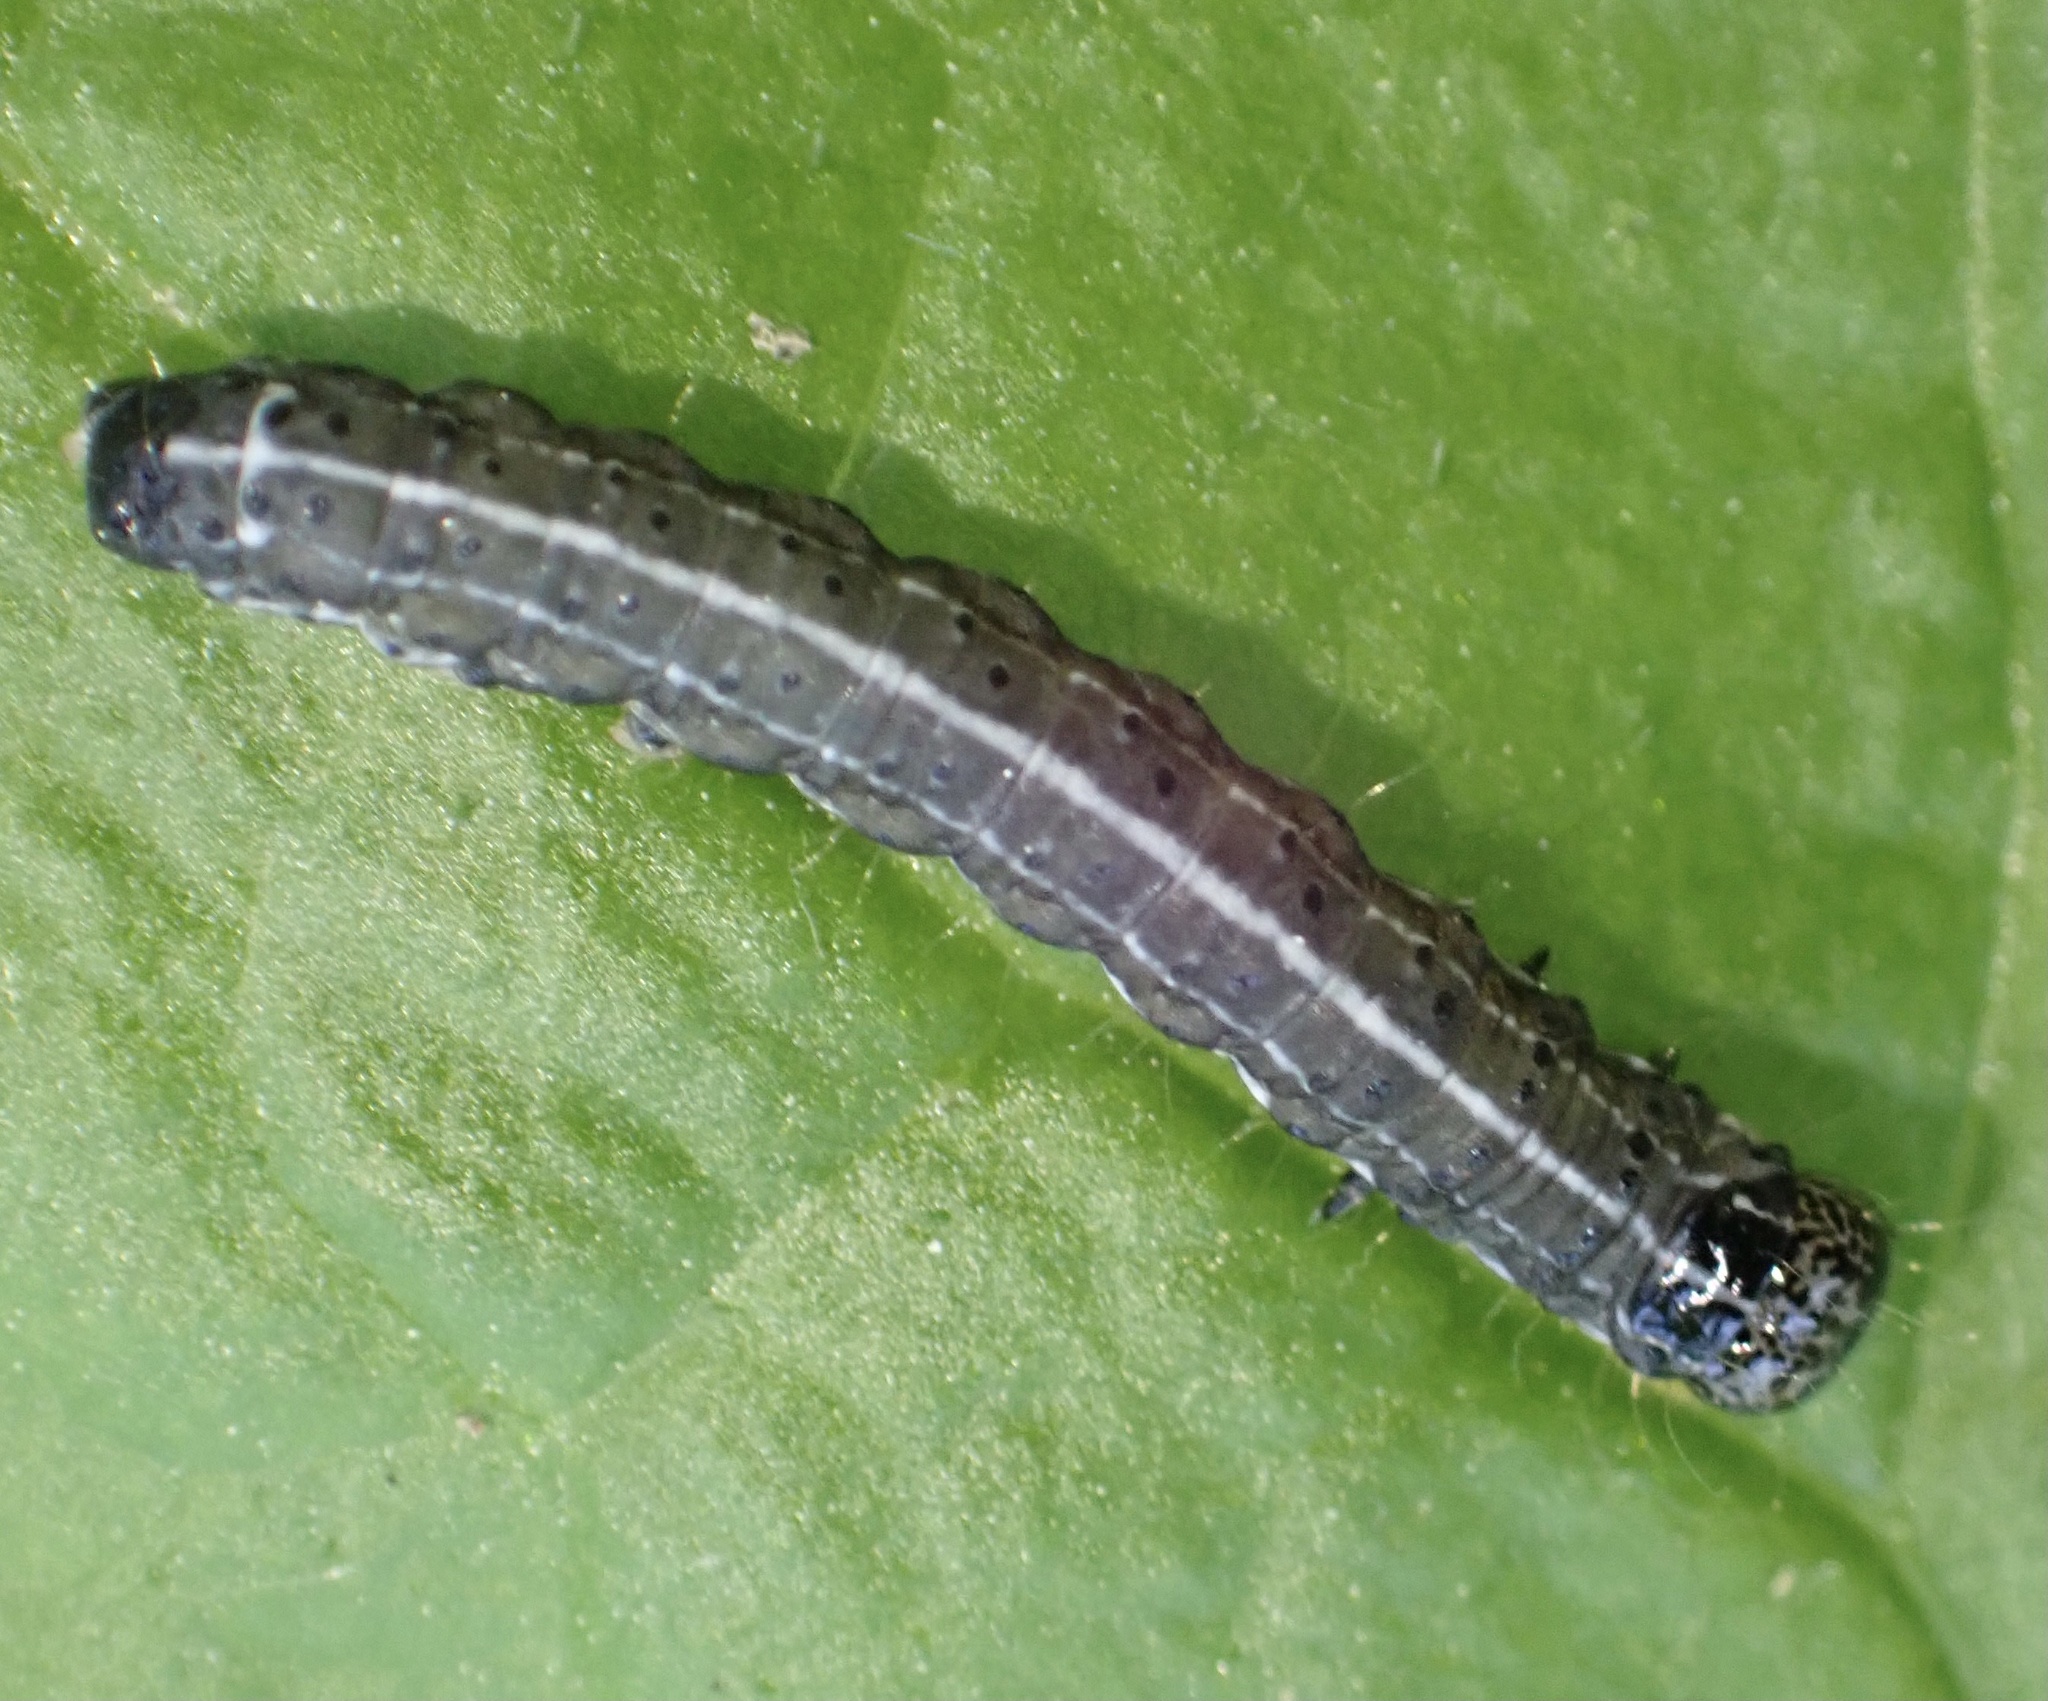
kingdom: Animalia
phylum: Arthropoda
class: Insecta
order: Lepidoptera
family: Noctuidae
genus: Orthosia
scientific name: Orthosia cruda
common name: Small quaker
